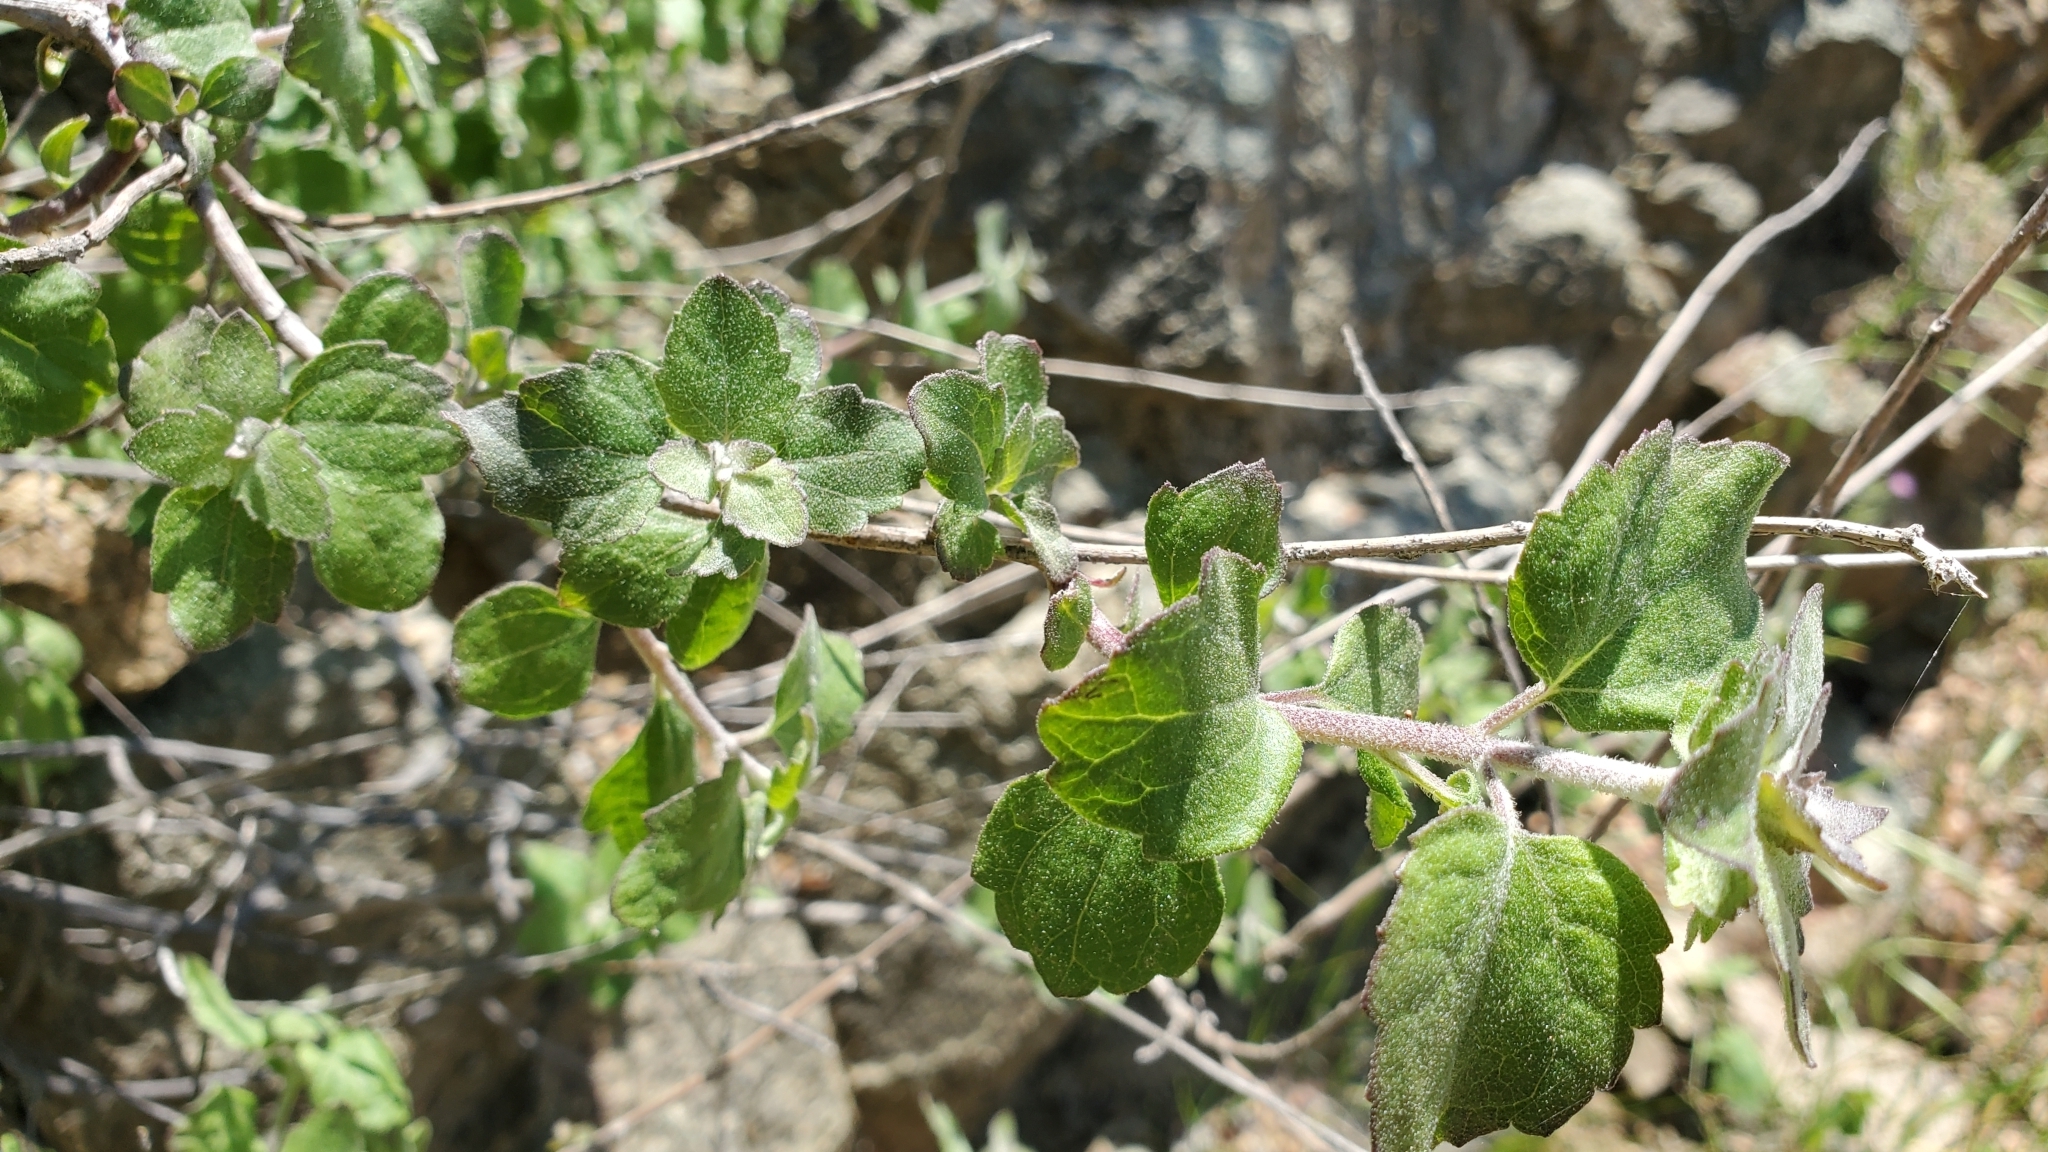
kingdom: Plantae
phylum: Tracheophyta
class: Magnoliopsida
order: Asterales
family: Asteraceae
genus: Brickellia
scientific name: Brickellia californica
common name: California brickellbush
